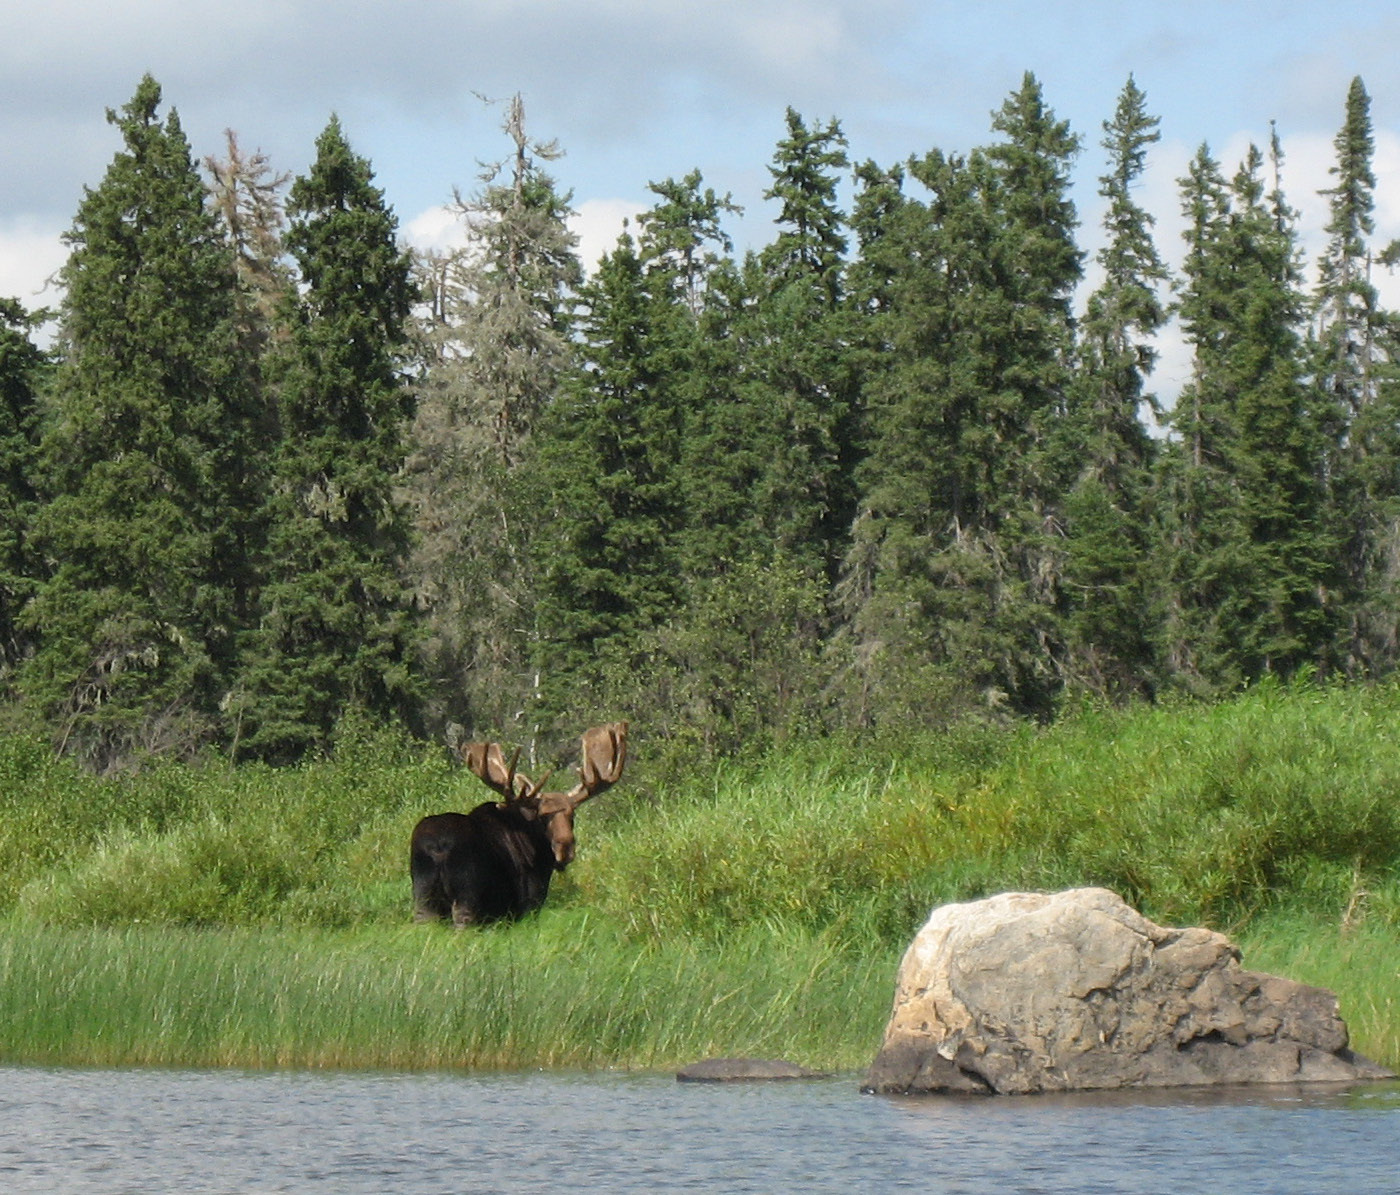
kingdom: Animalia
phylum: Chordata
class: Mammalia
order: Artiodactyla
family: Cervidae
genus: Alces
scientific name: Alces alces
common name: Moose
